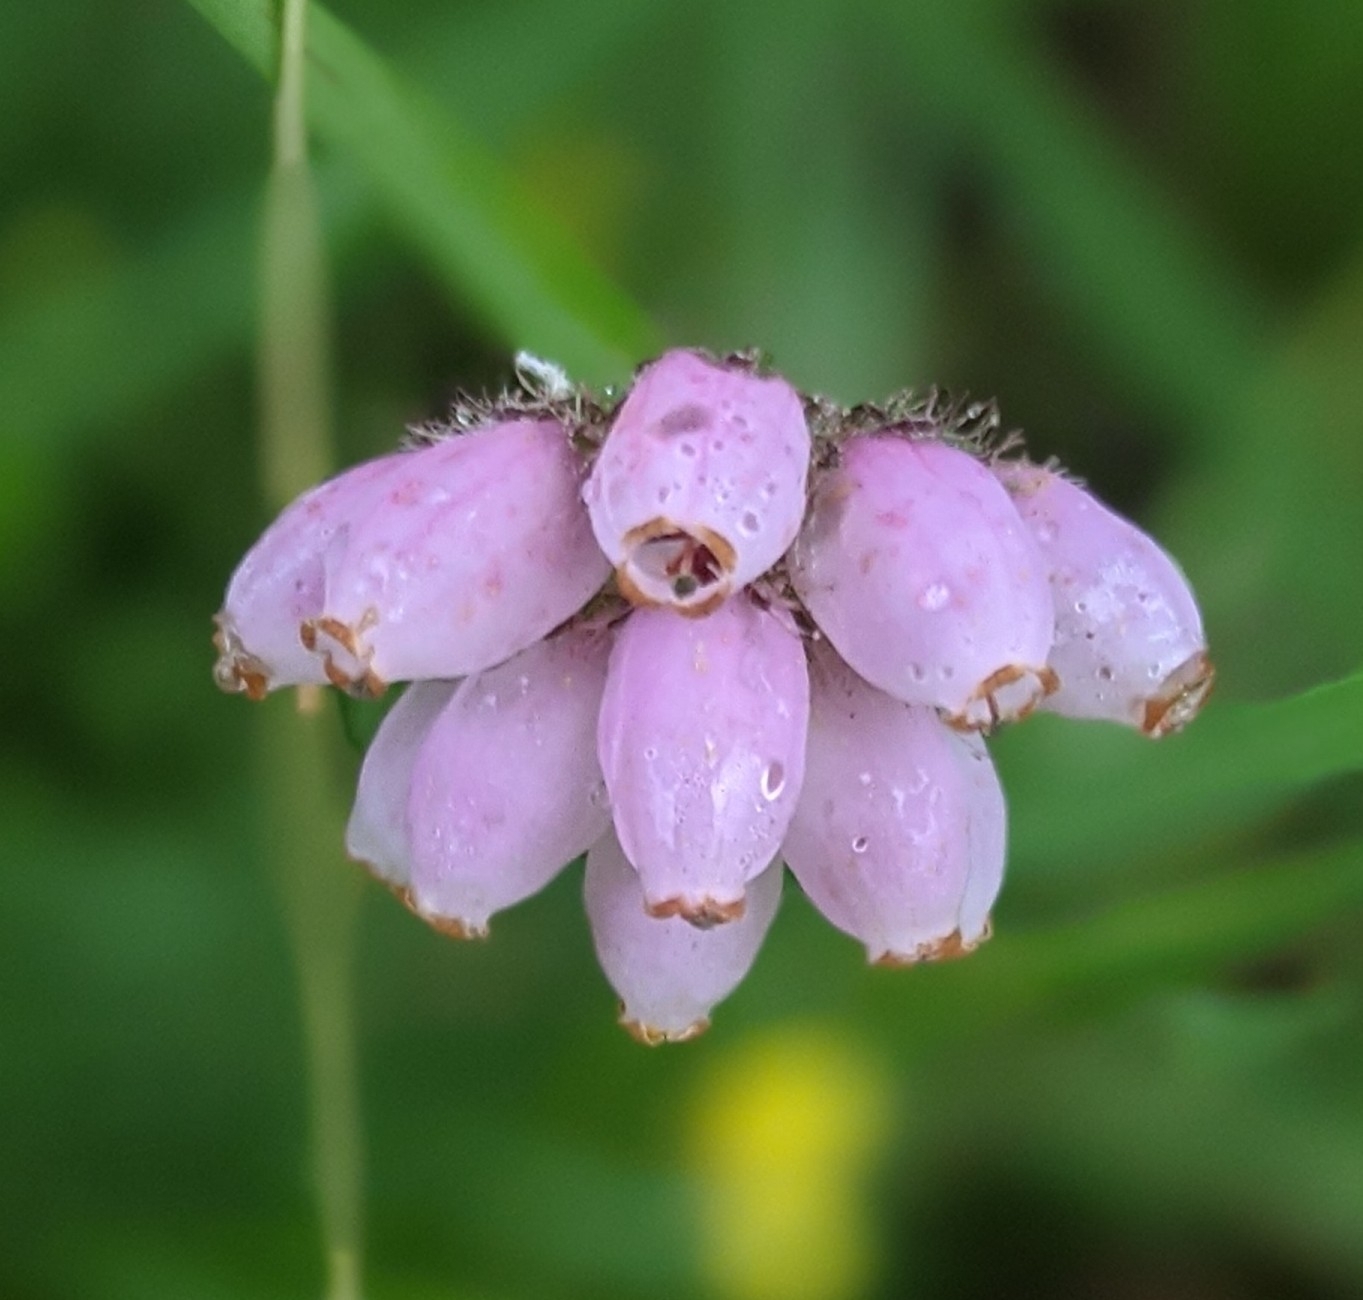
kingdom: Plantae
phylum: Tracheophyta
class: Magnoliopsida
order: Ericales
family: Ericaceae
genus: Erica
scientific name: Erica tetralix
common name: Cross-leaved heath
